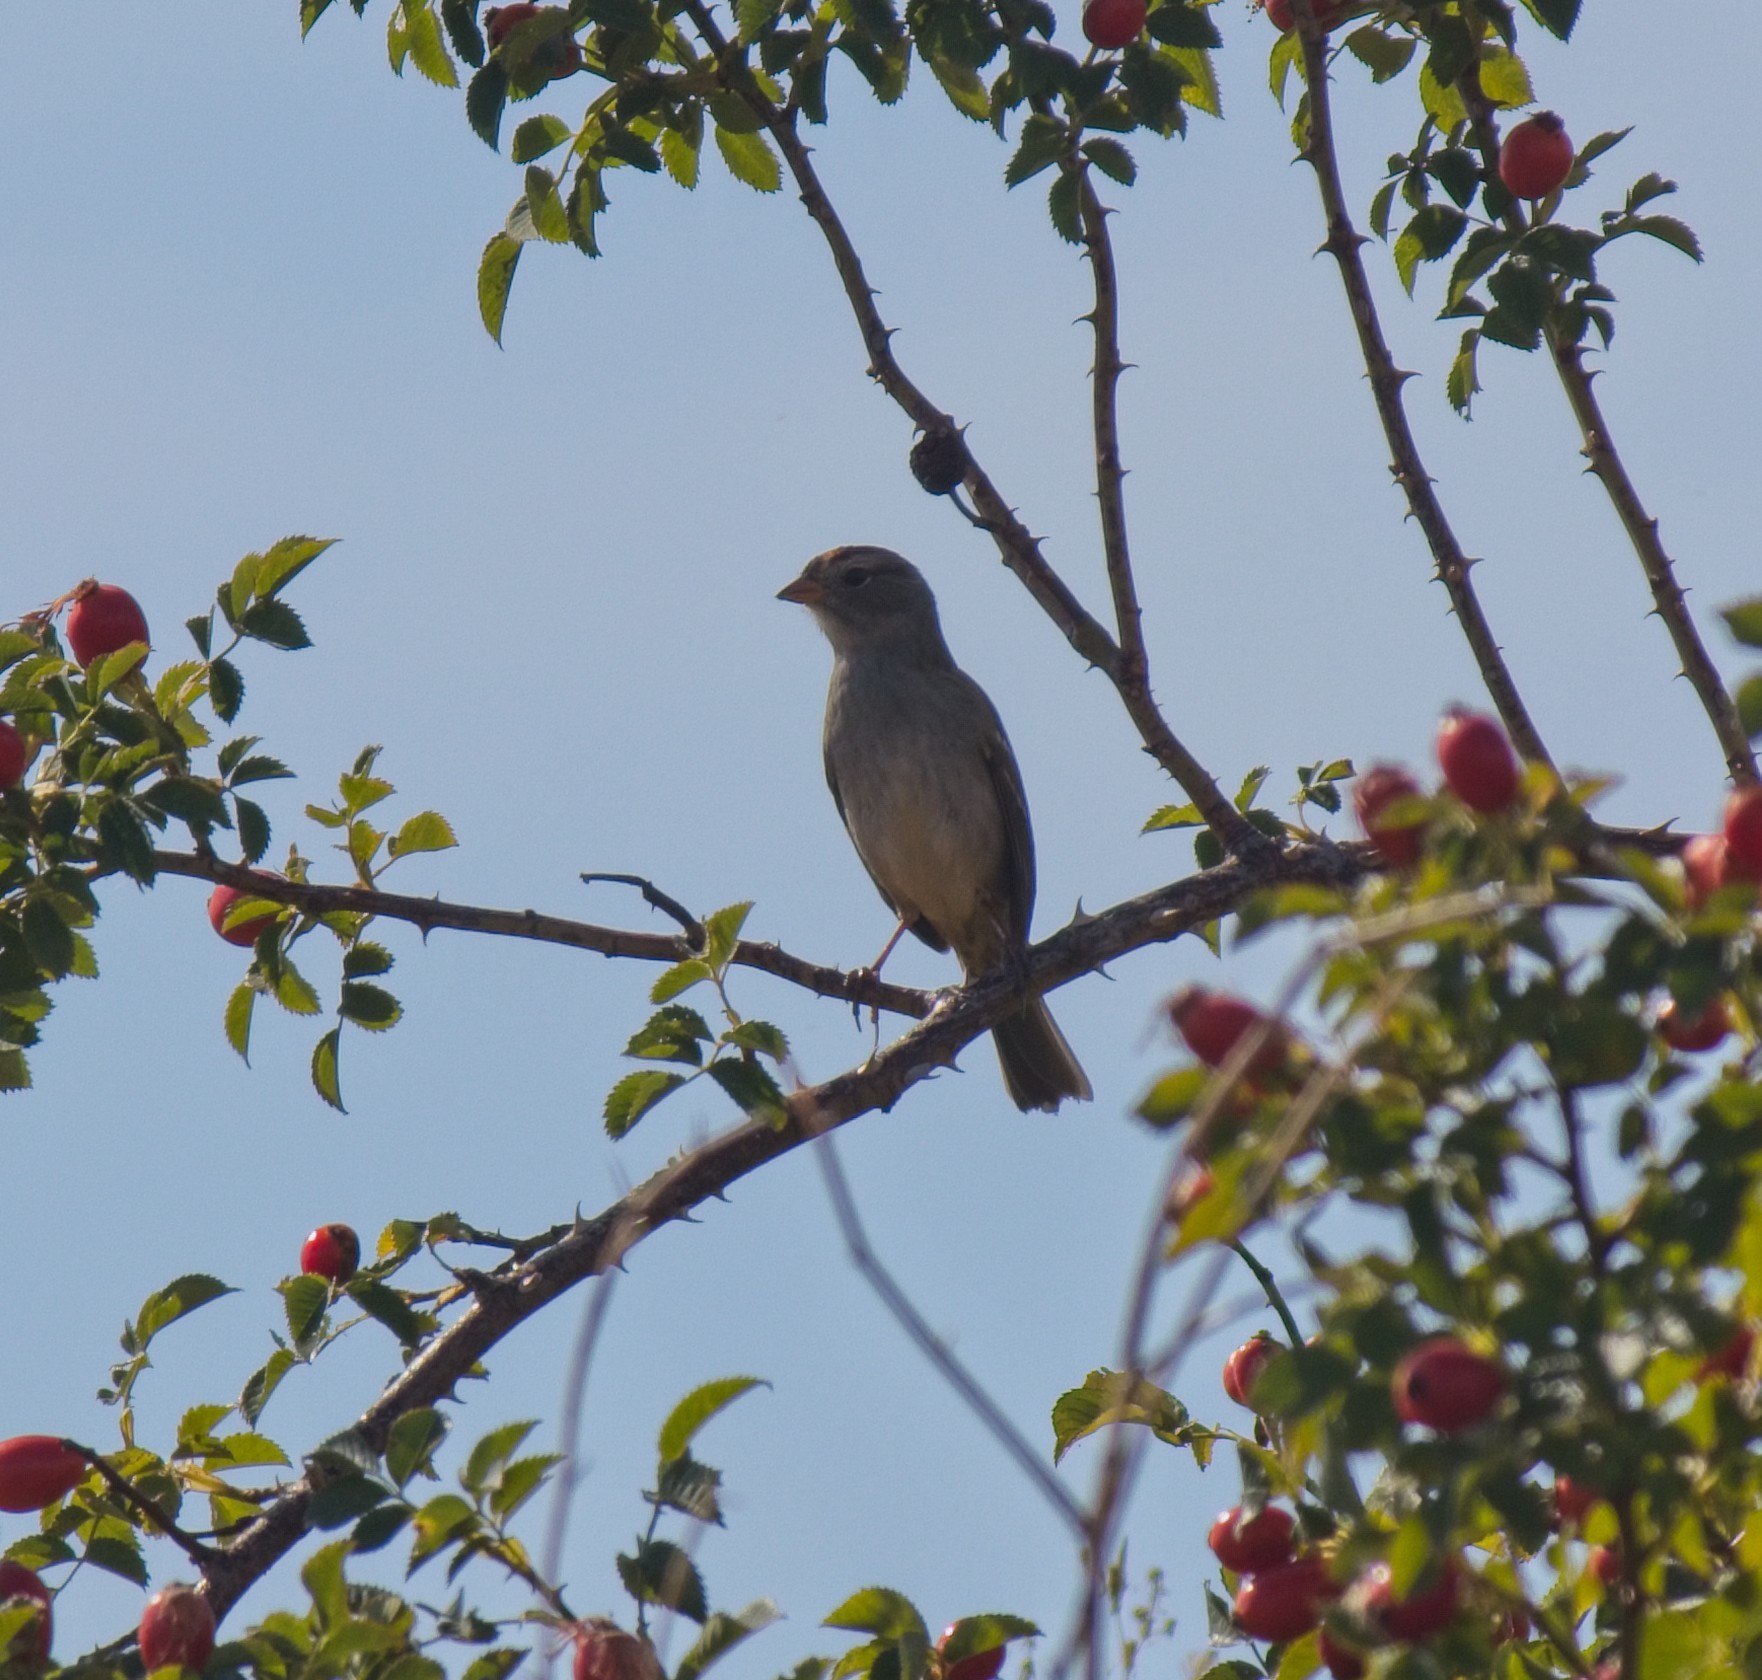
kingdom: Animalia
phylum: Chordata
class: Aves
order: Passeriformes
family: Passerellidae
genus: Zonotrichia
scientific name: Zonotrichia leucophrys
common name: White-crowned sparrow
